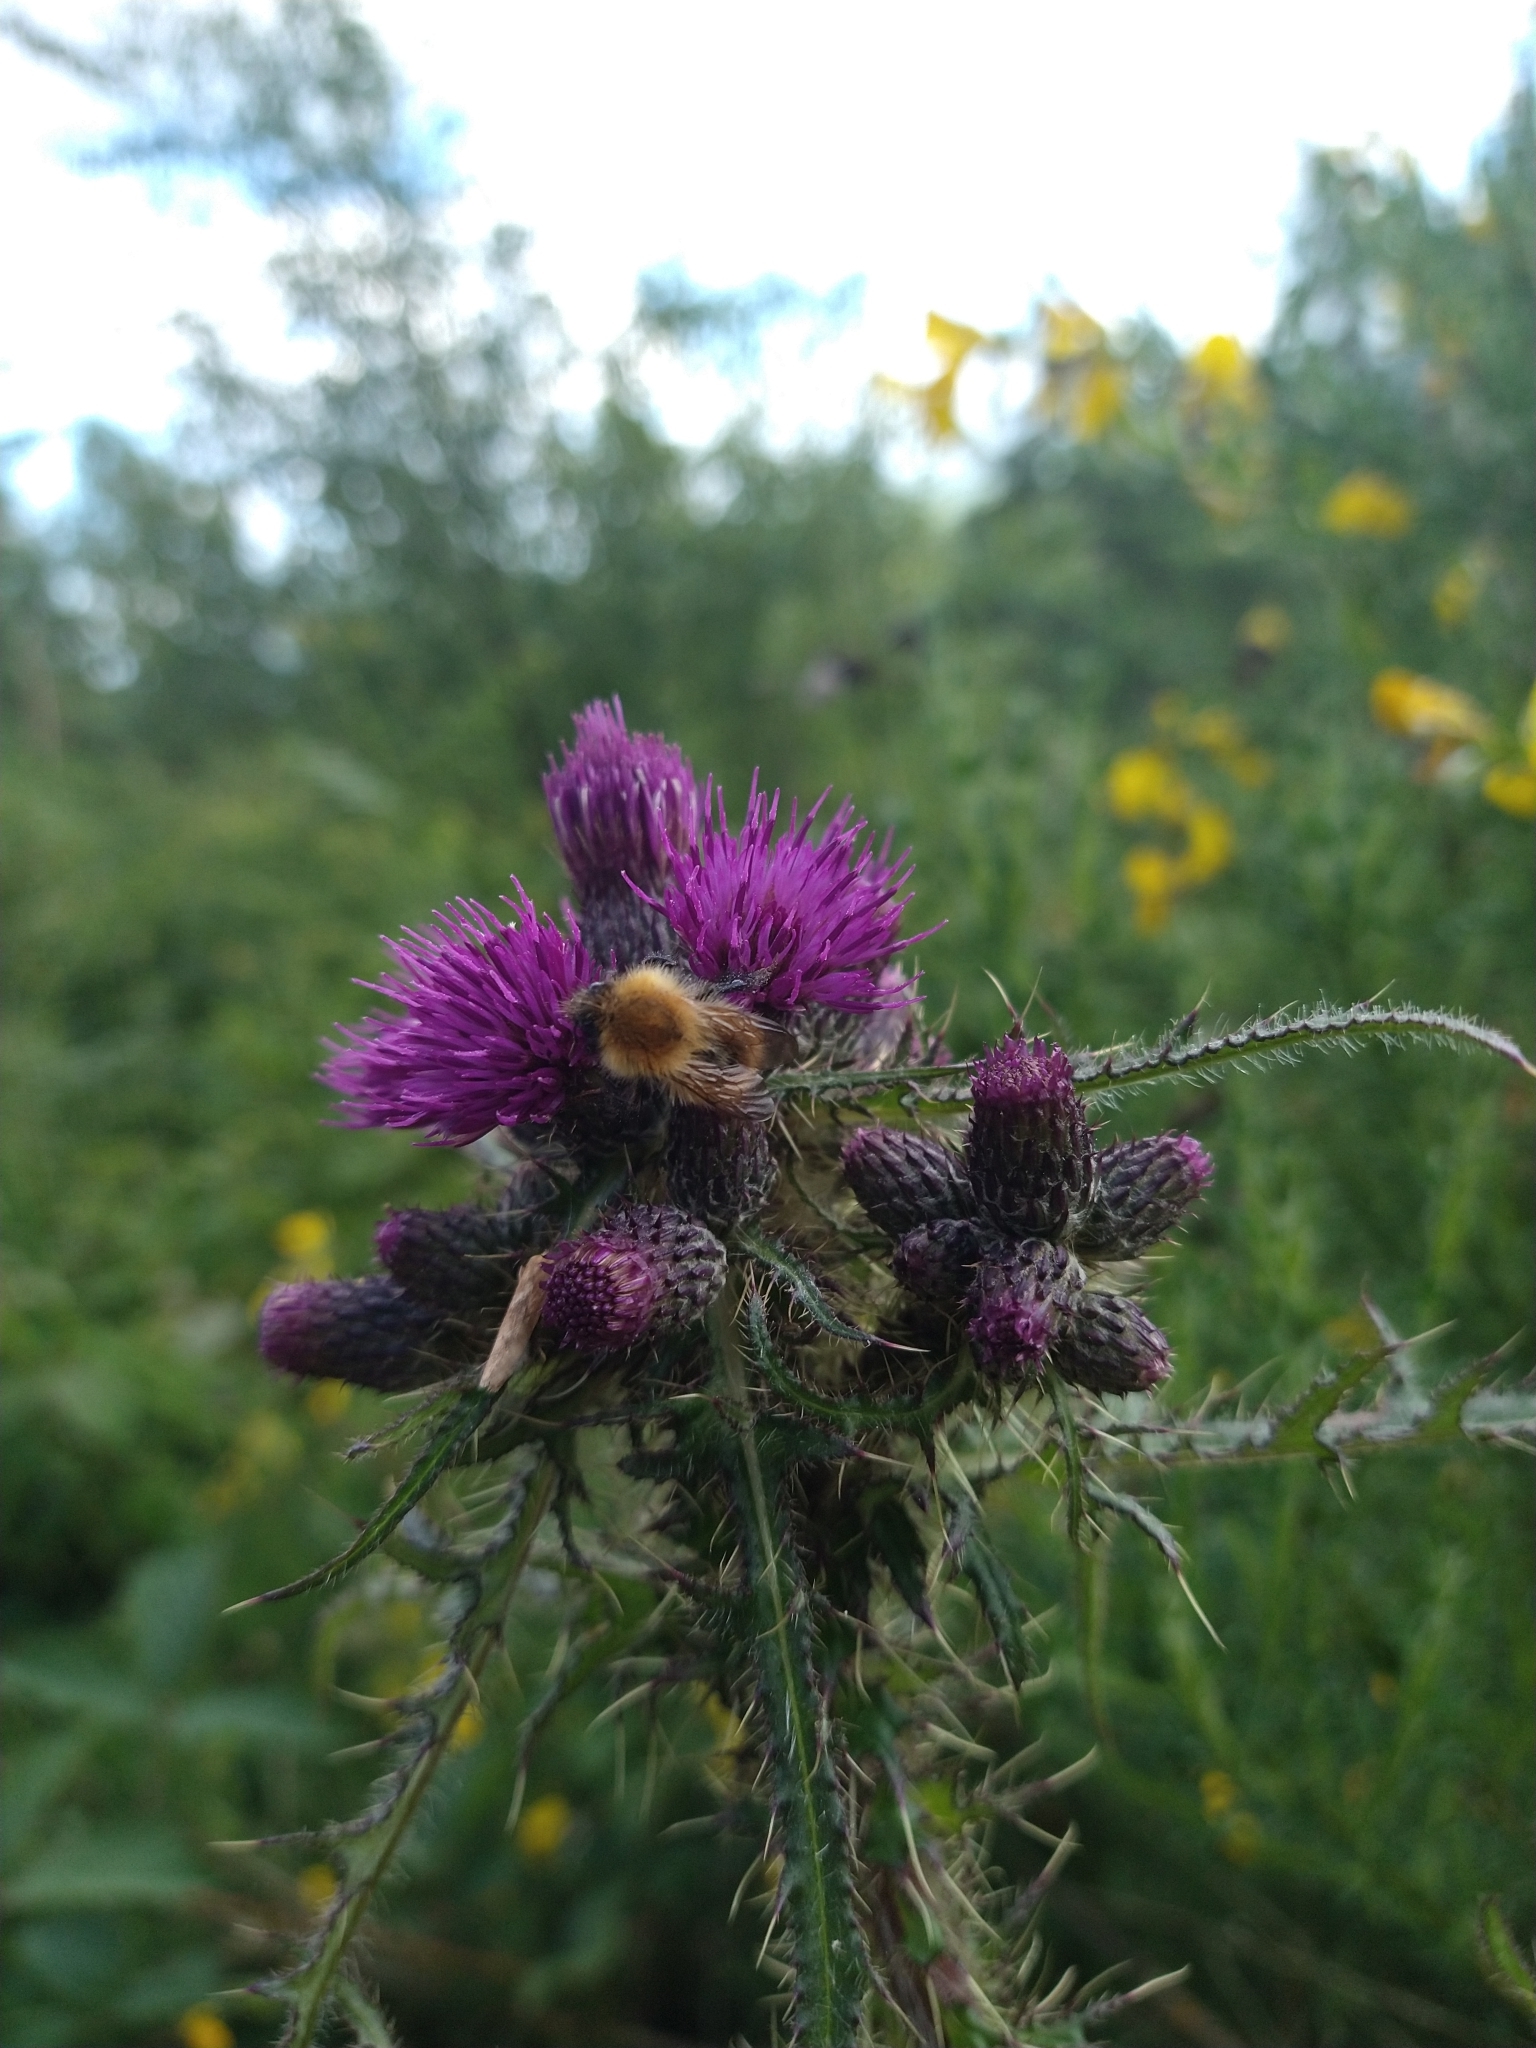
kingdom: Animalia
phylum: Arthropoda
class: Insecta
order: Hymenoptera
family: Apidae
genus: Bombus
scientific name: Bombus pascuorum
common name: Common carder bee
